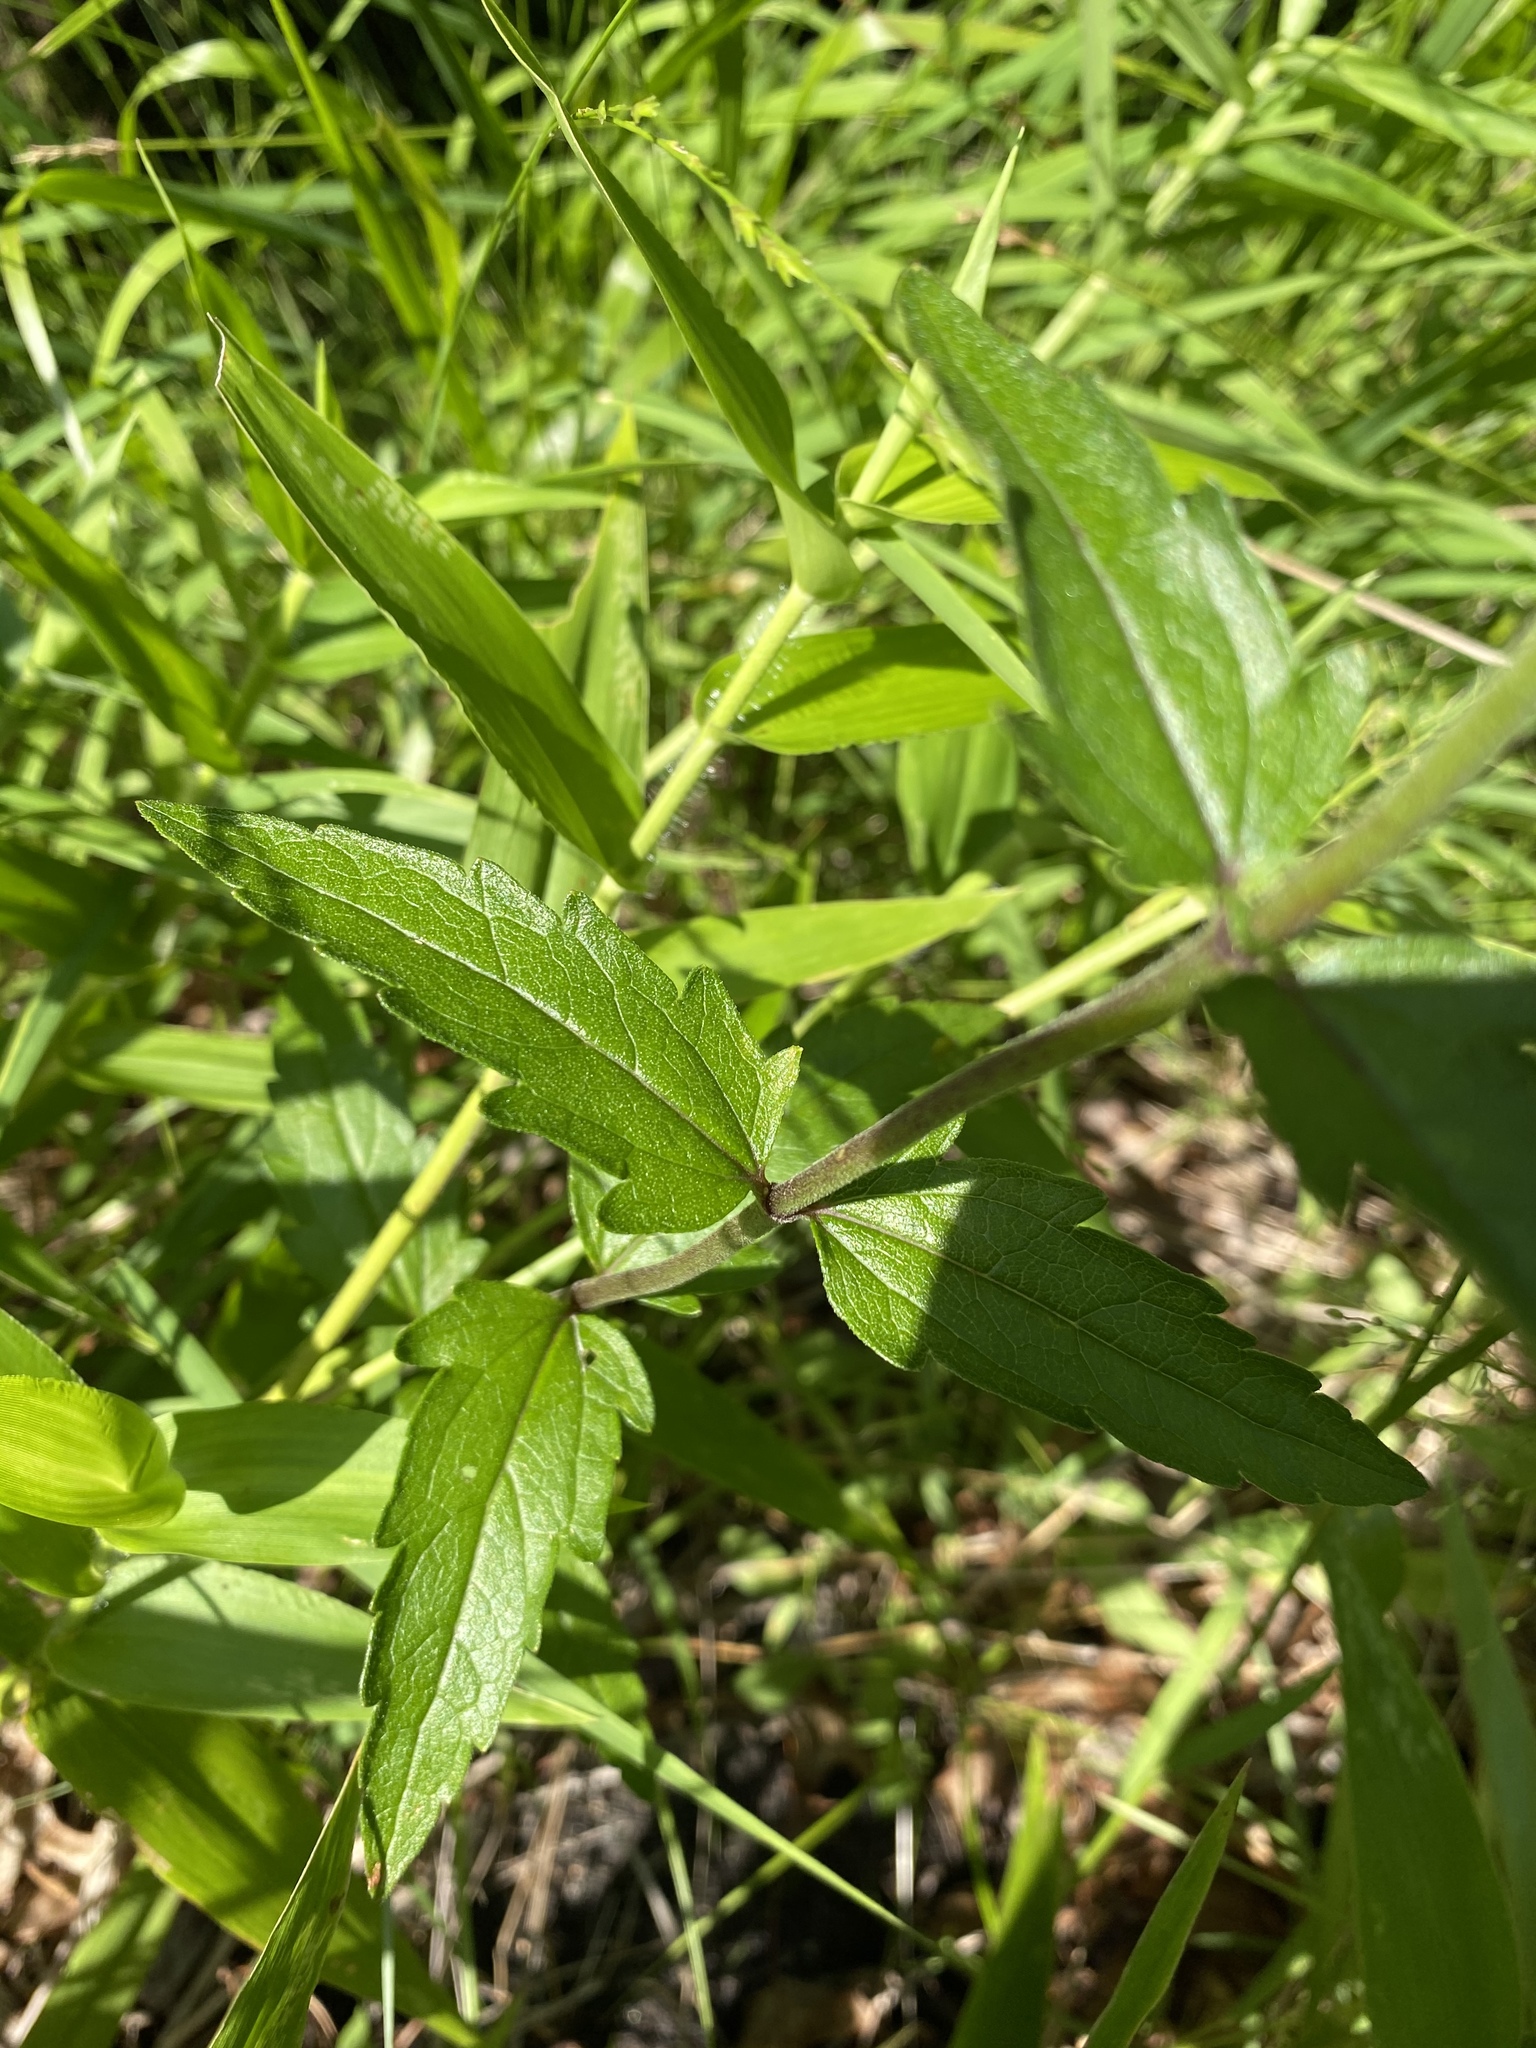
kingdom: Plantae
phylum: Tracheophyta
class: Magnoliopsida
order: Asterales
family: Asteraceae
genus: Eupatorium
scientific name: Eupatorium pilosum
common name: Rough boneset
